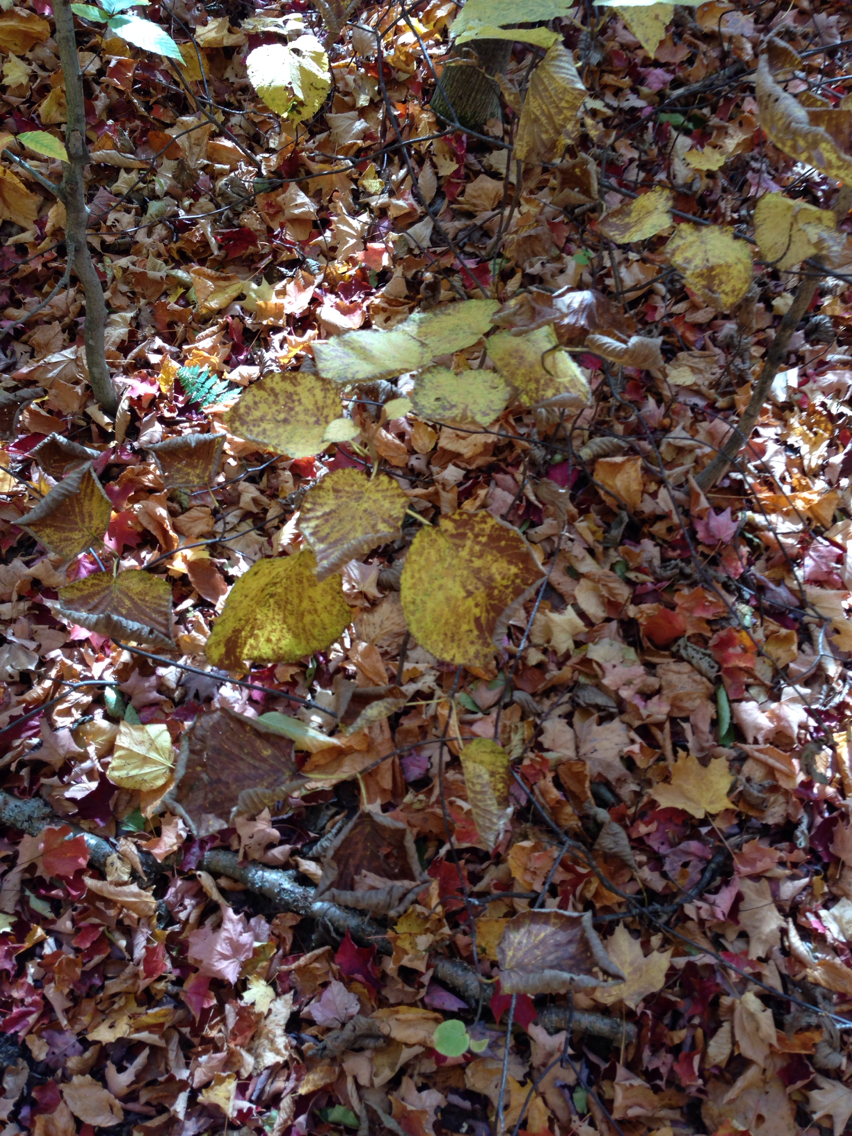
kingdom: Plantae
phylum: Tracheophyta
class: Magnoliopsida
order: Dipsacales
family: Viburnaceae
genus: Viburnum
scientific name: Viburnum lantanoides
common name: Hobblebush
